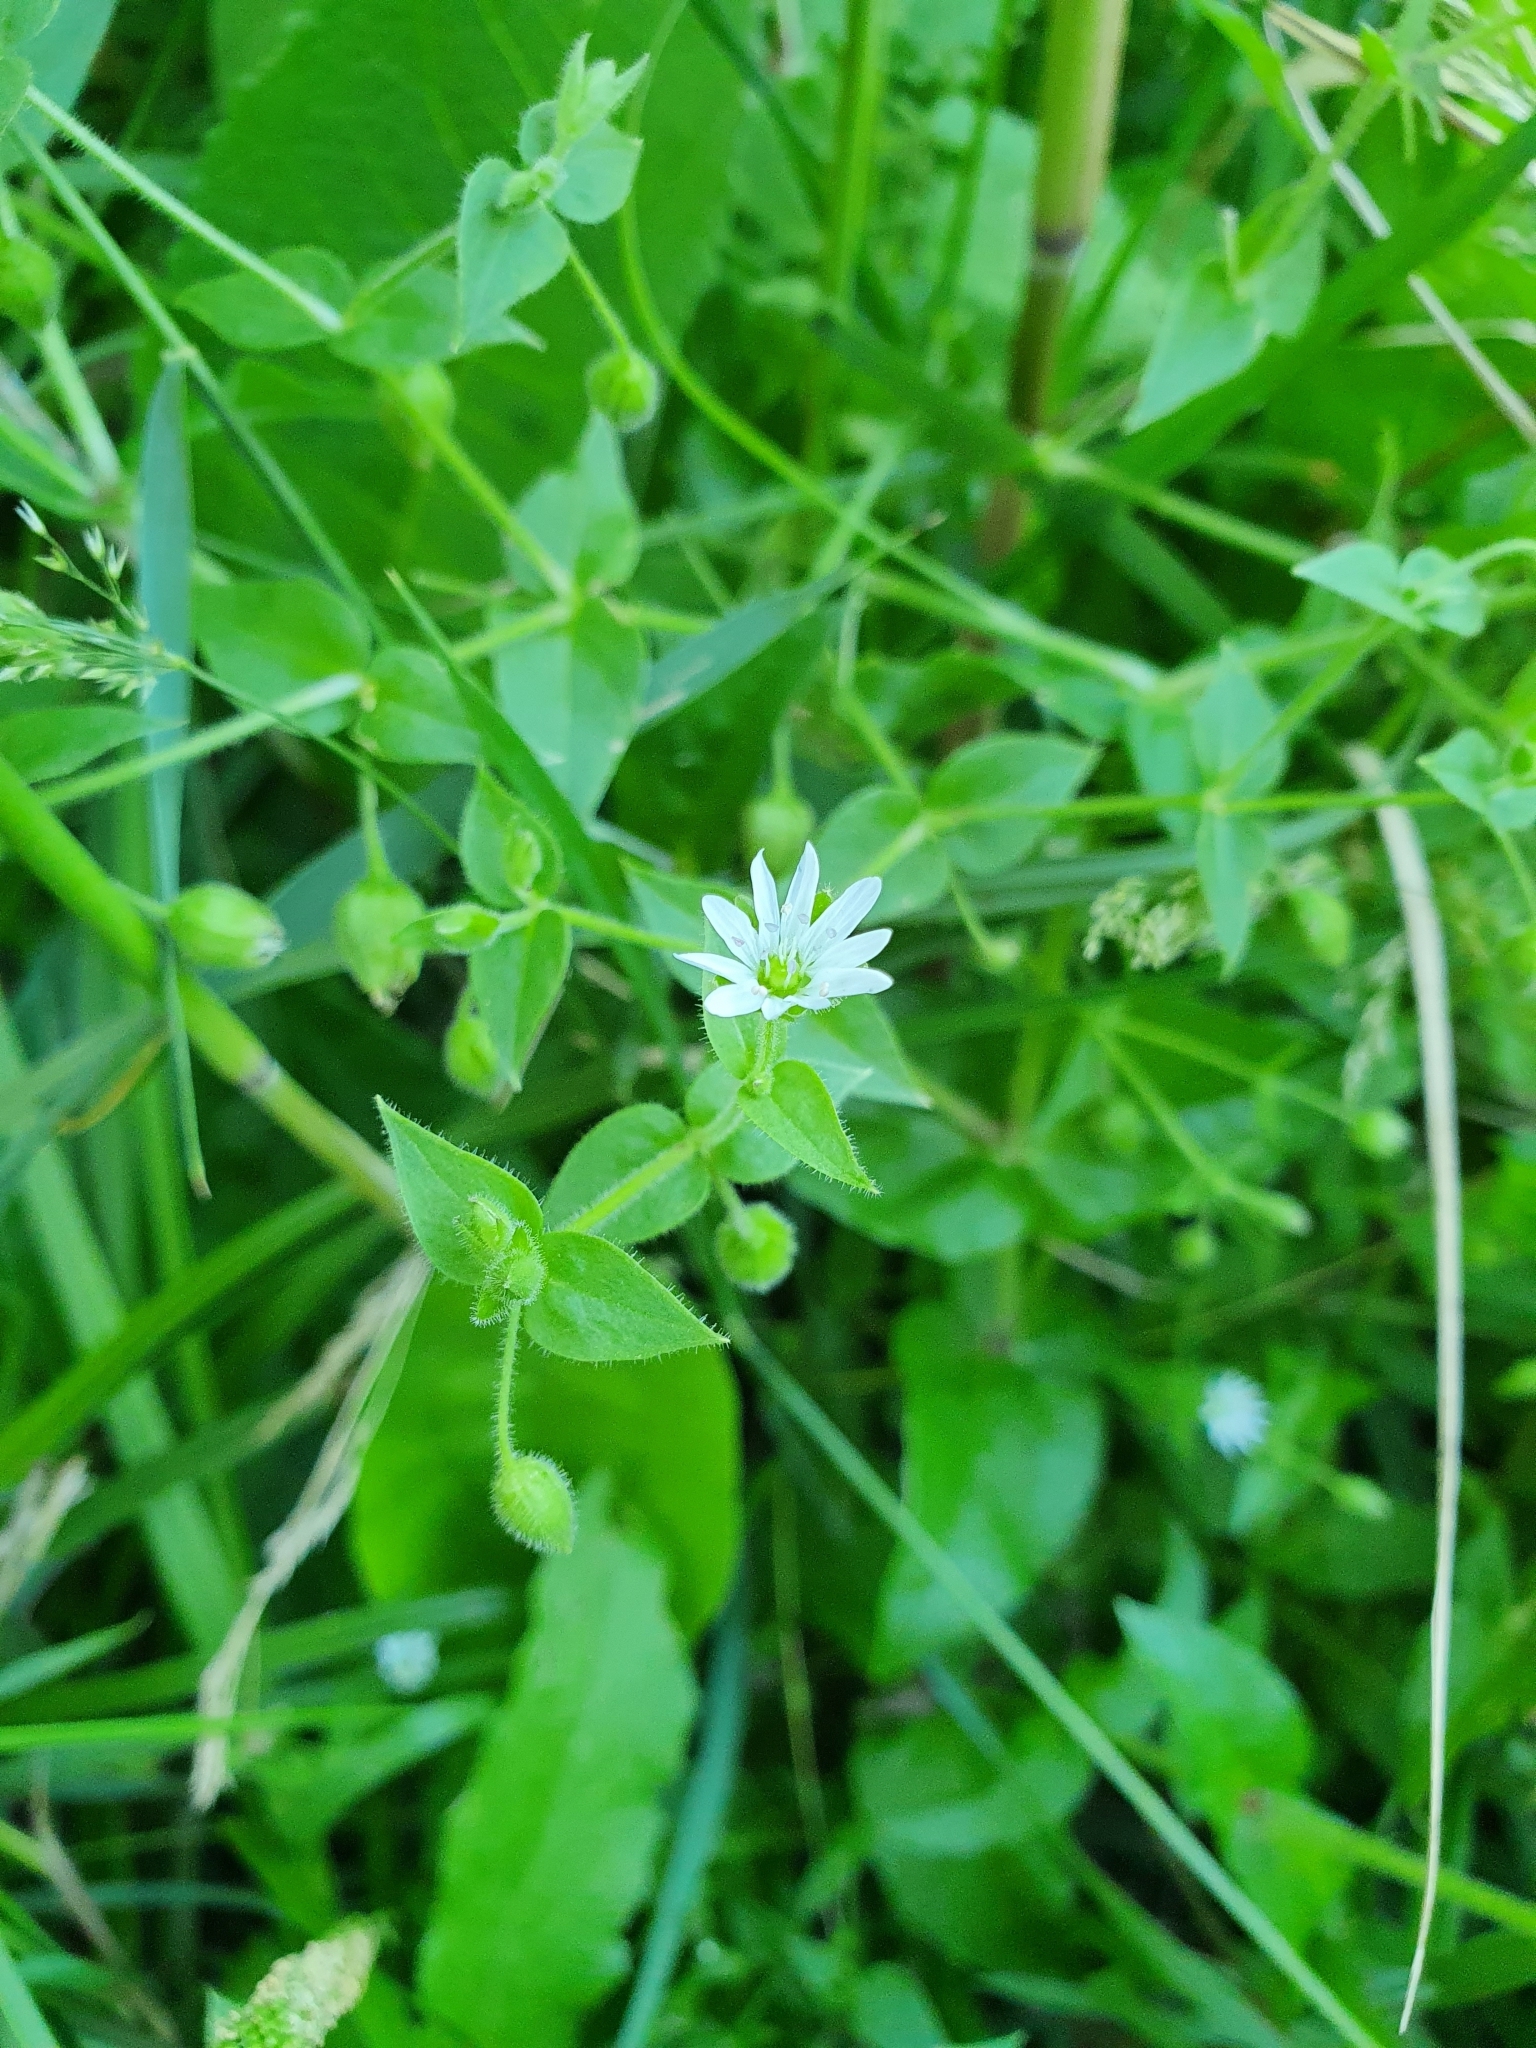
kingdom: Plantae
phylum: Tracheophyta
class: Magnoliopsida
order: Caryophyllales
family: Caryophyllaceae
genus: Stellaria
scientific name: Stellaria aquatica
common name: Water chickweed
